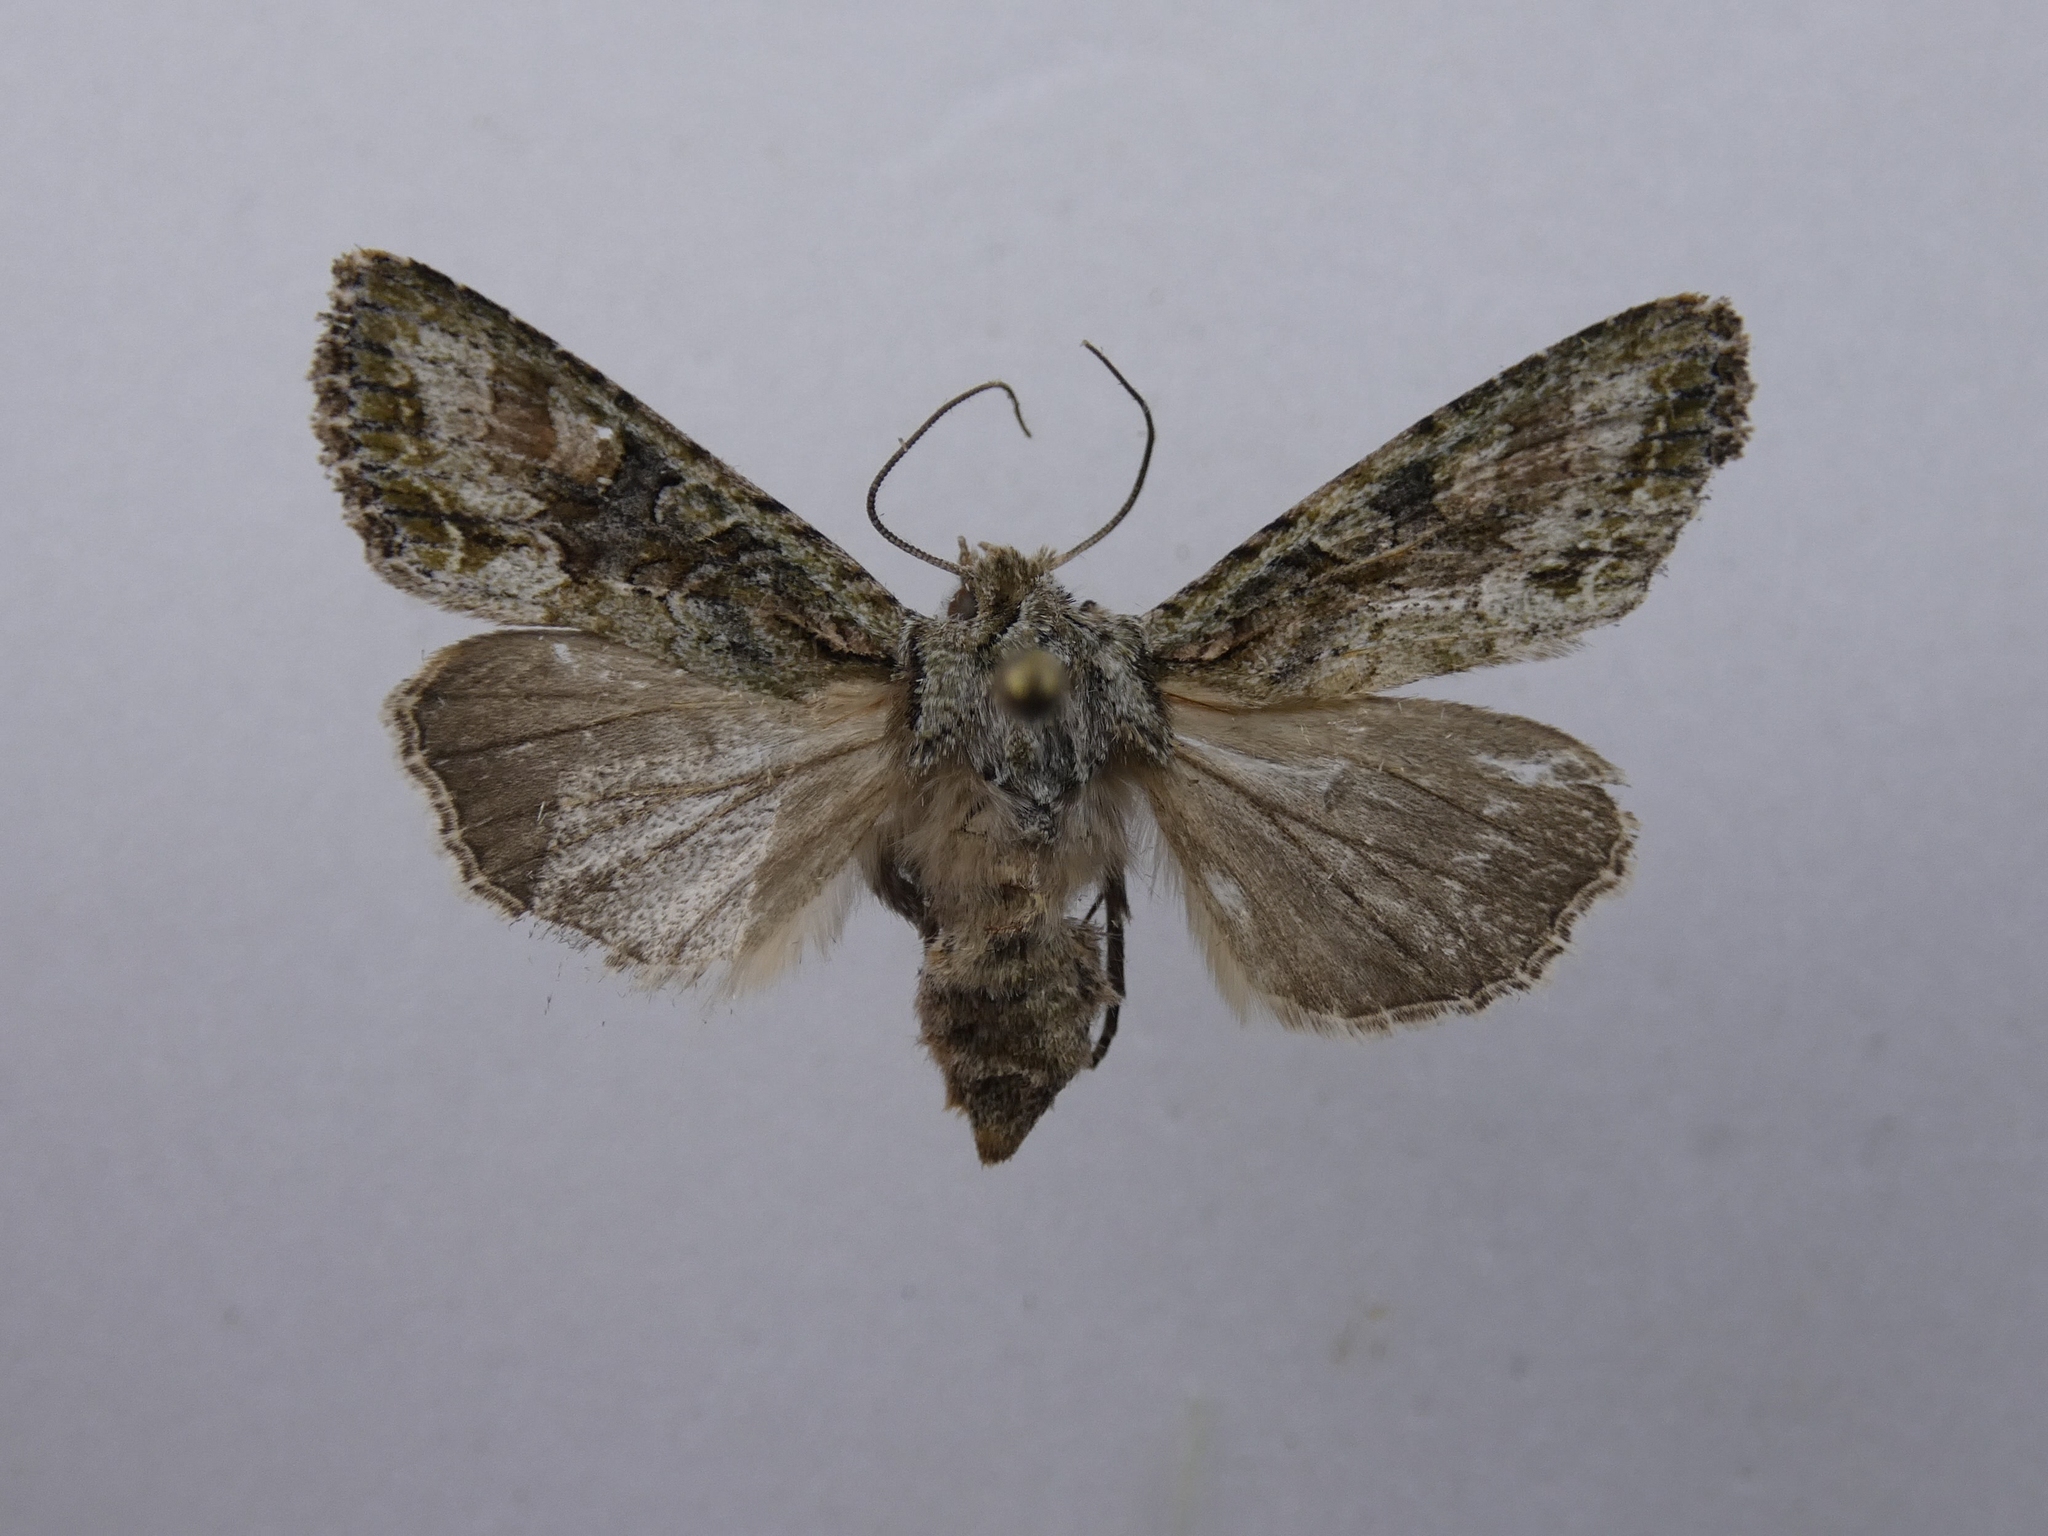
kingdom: Animalia
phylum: Arthropoda
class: Insecta
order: Lepidoptera
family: Noctuidae
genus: Ichneutica
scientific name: Ichneutica mutans
